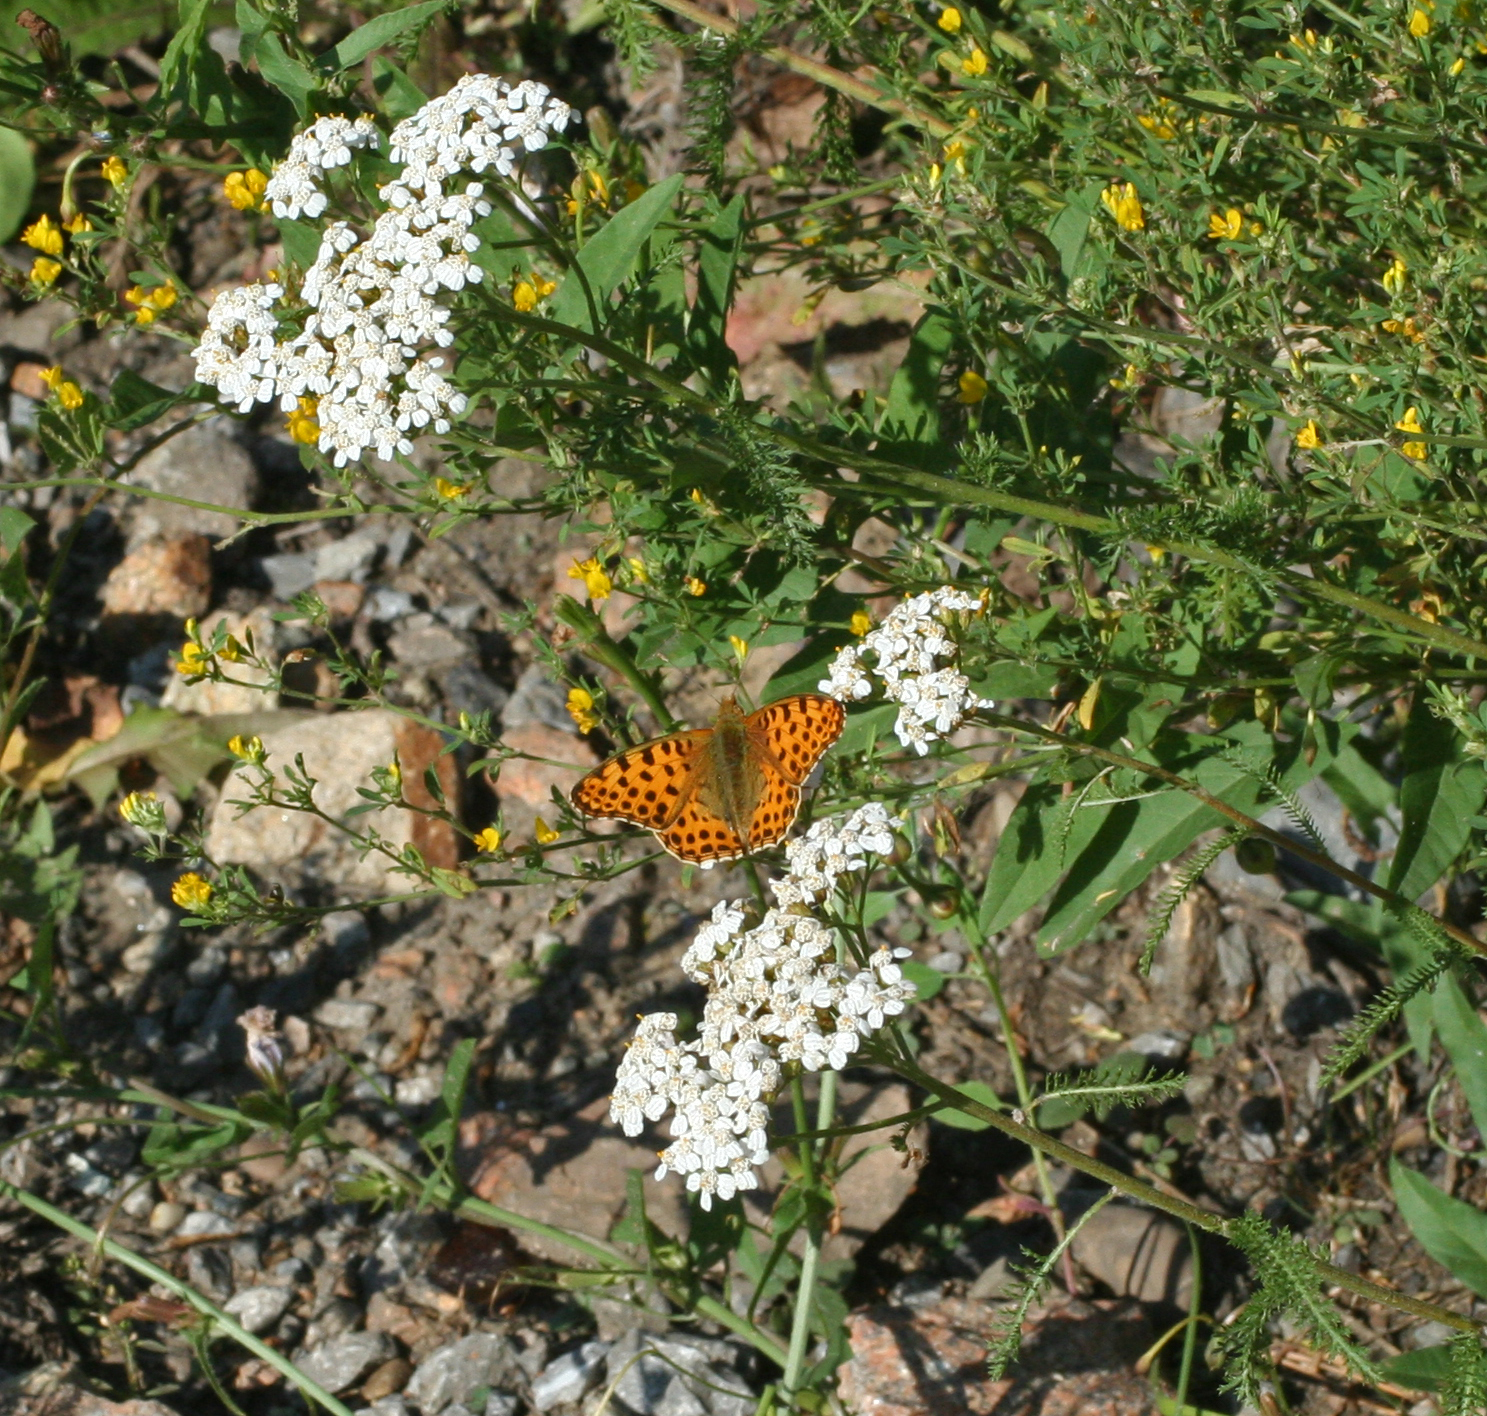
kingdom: Animalia
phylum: Arthropoda
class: Insecta
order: Lepidoptera
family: Nymphalidae
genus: Issoria
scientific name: Issoria lathonia
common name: Queen of spain fritillary
